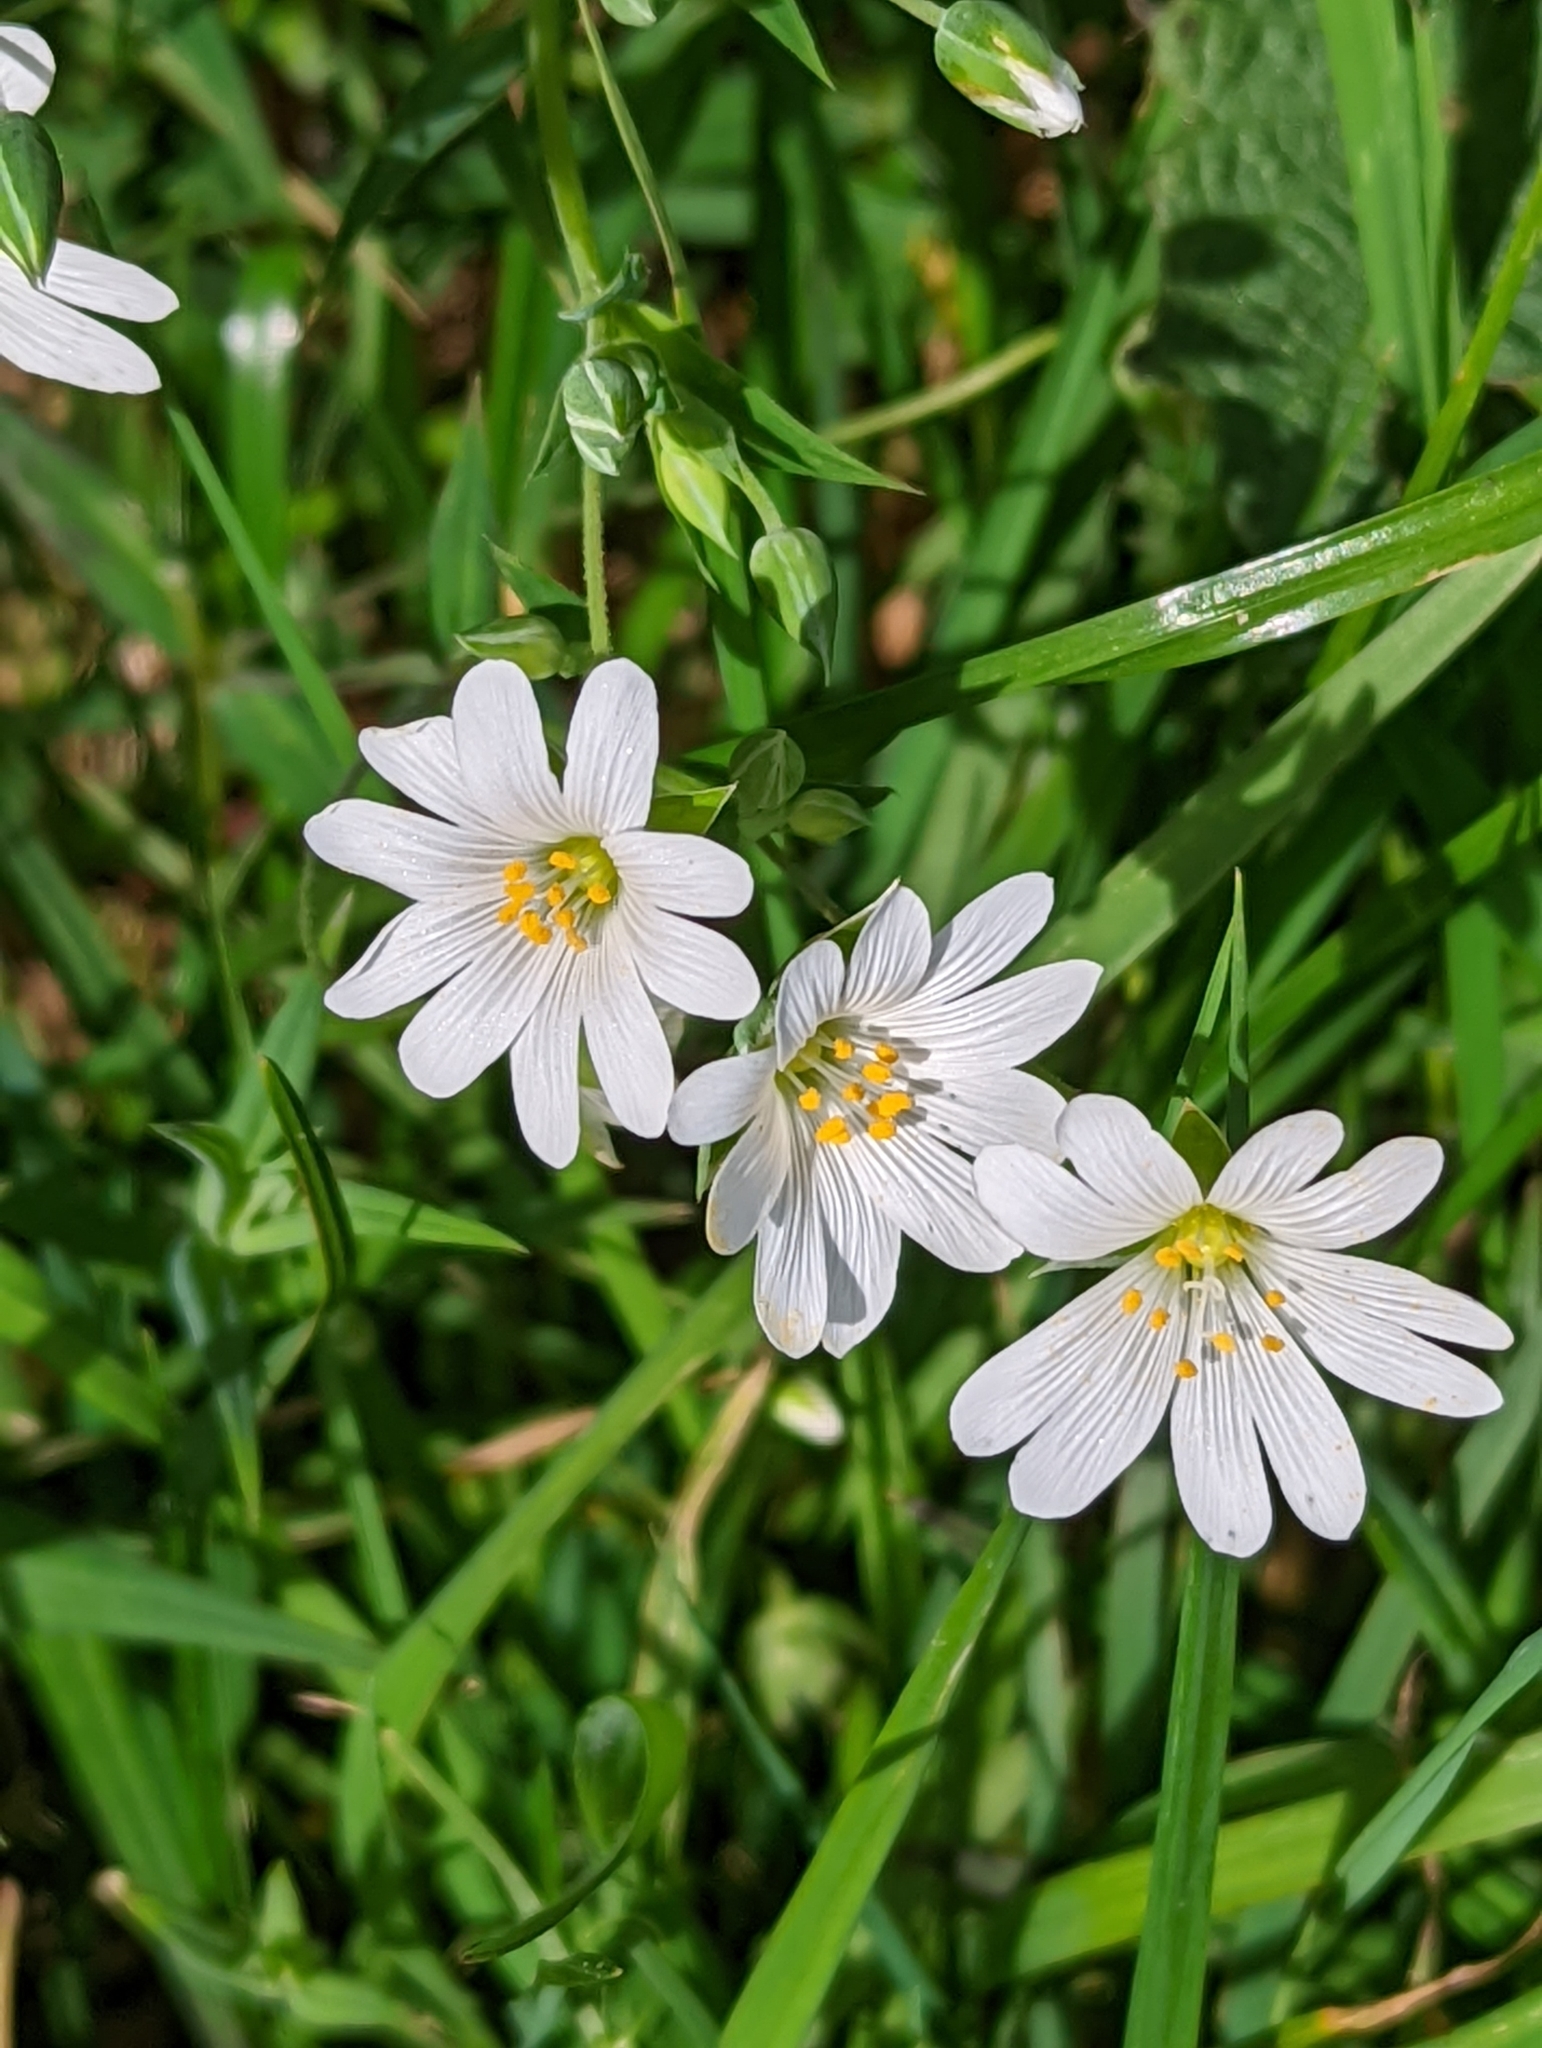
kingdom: Plantae
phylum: Tracheophyta
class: Magnoliopsida
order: Caryophyllales
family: Caryophyllaceae
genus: Rabelera
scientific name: Rabelera holostea
